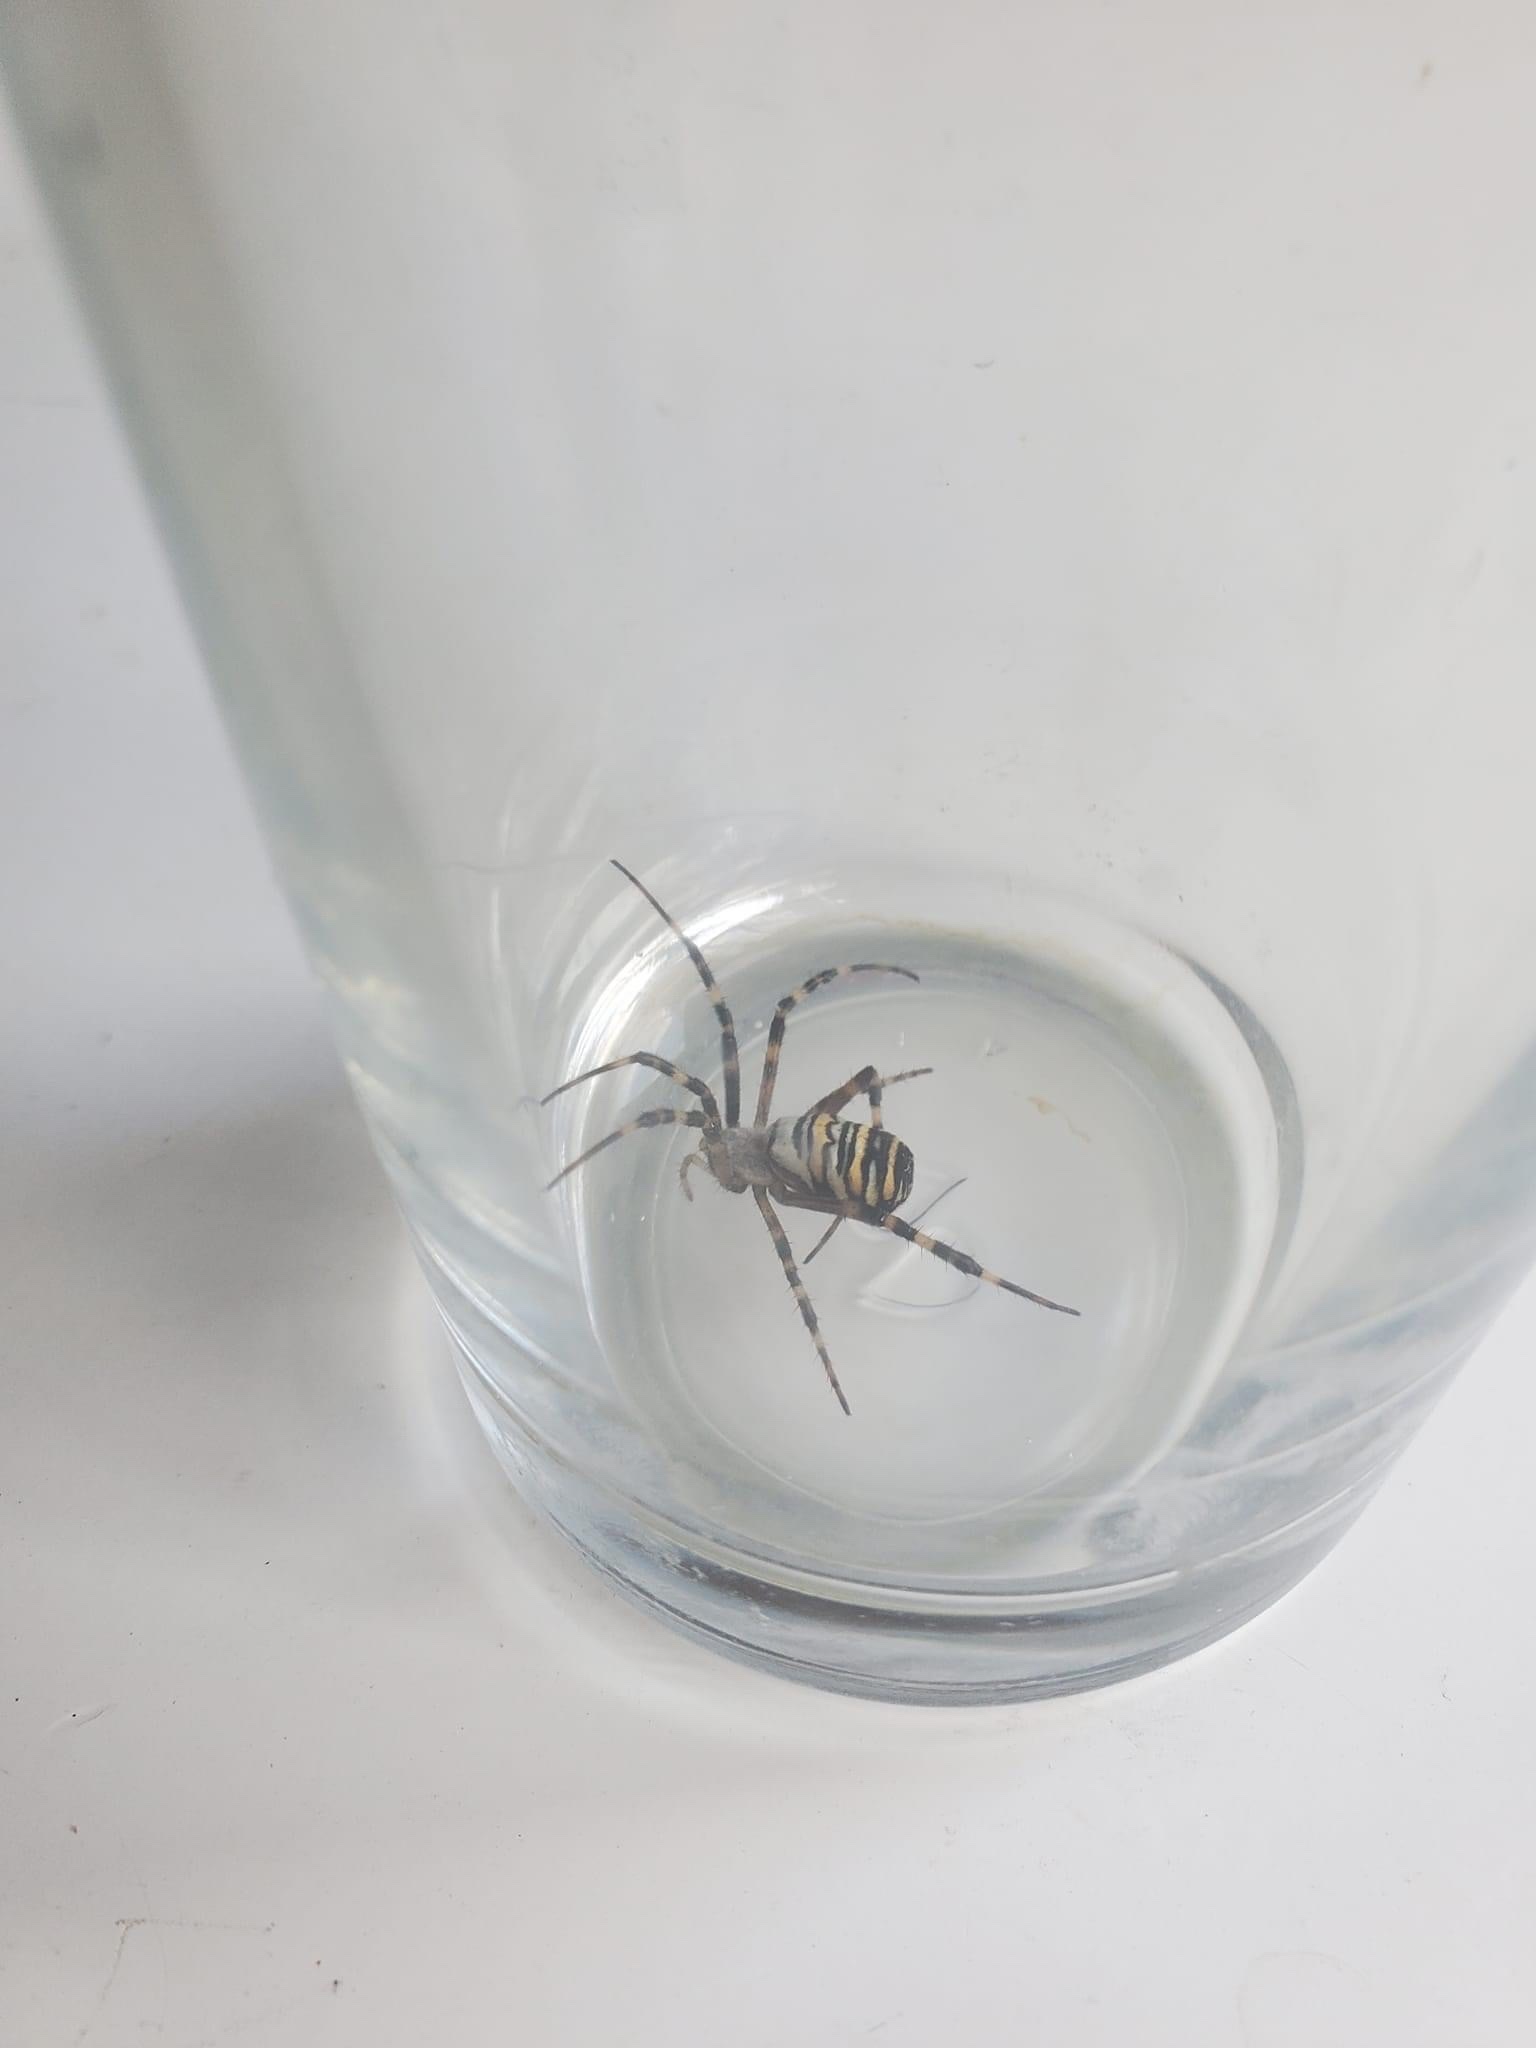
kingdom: Animalia
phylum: Arthropoda
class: Arachnida
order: Araneae
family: Araneidae
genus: Argiope
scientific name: Argiope bruennichi
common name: Wasp spider
